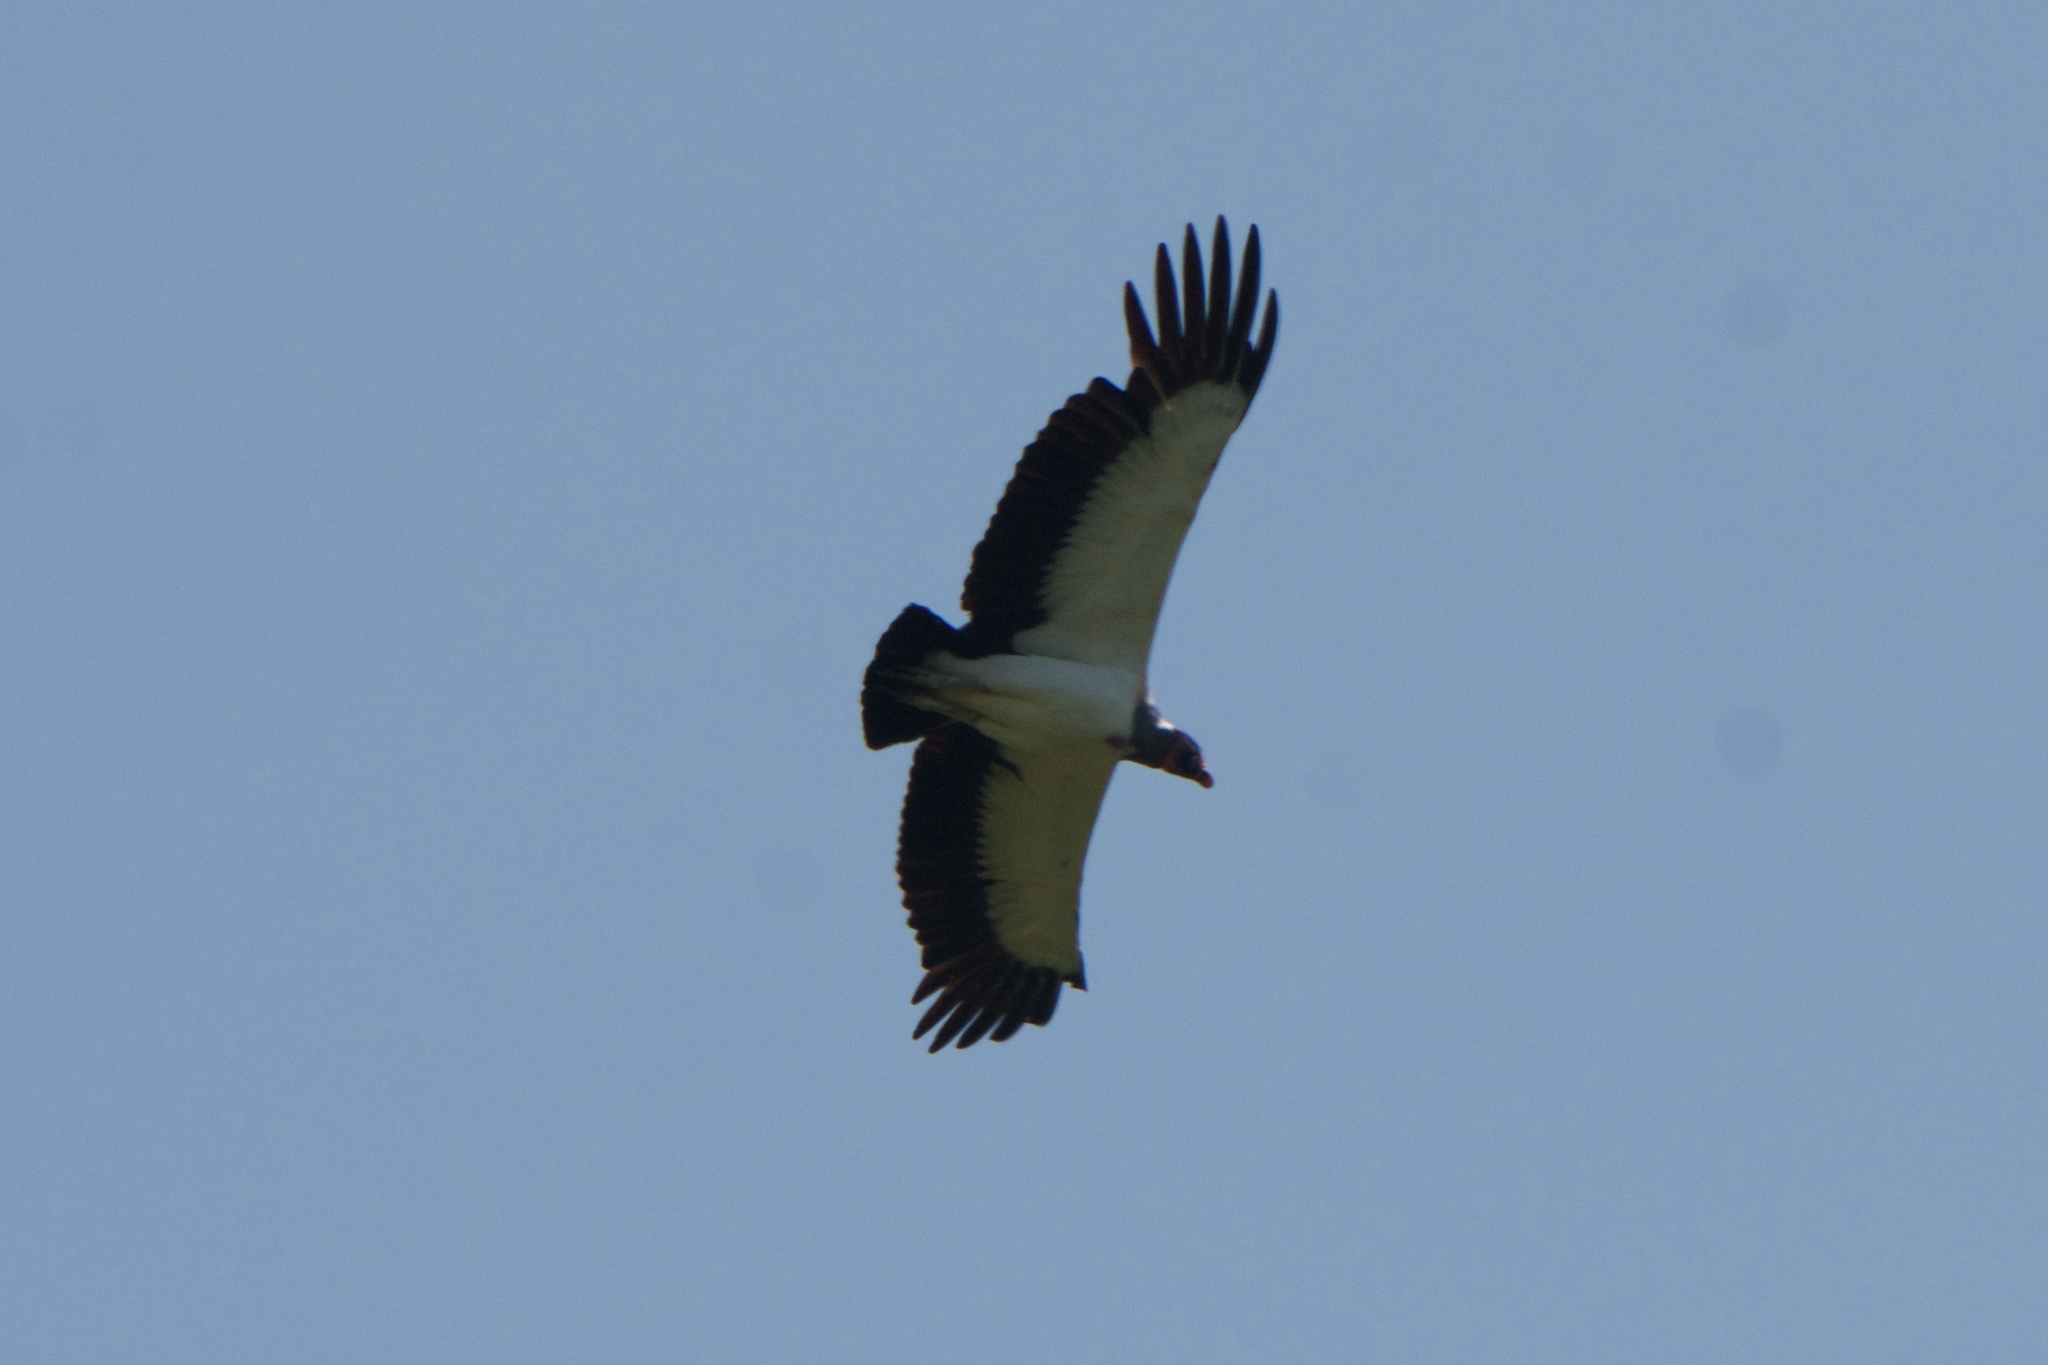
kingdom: Animalia
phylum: Chordata
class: Aves
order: Accipitriformes
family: Cathartidae
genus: Sarcoramphus
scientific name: Sarcoramphus papa
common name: King vulture
